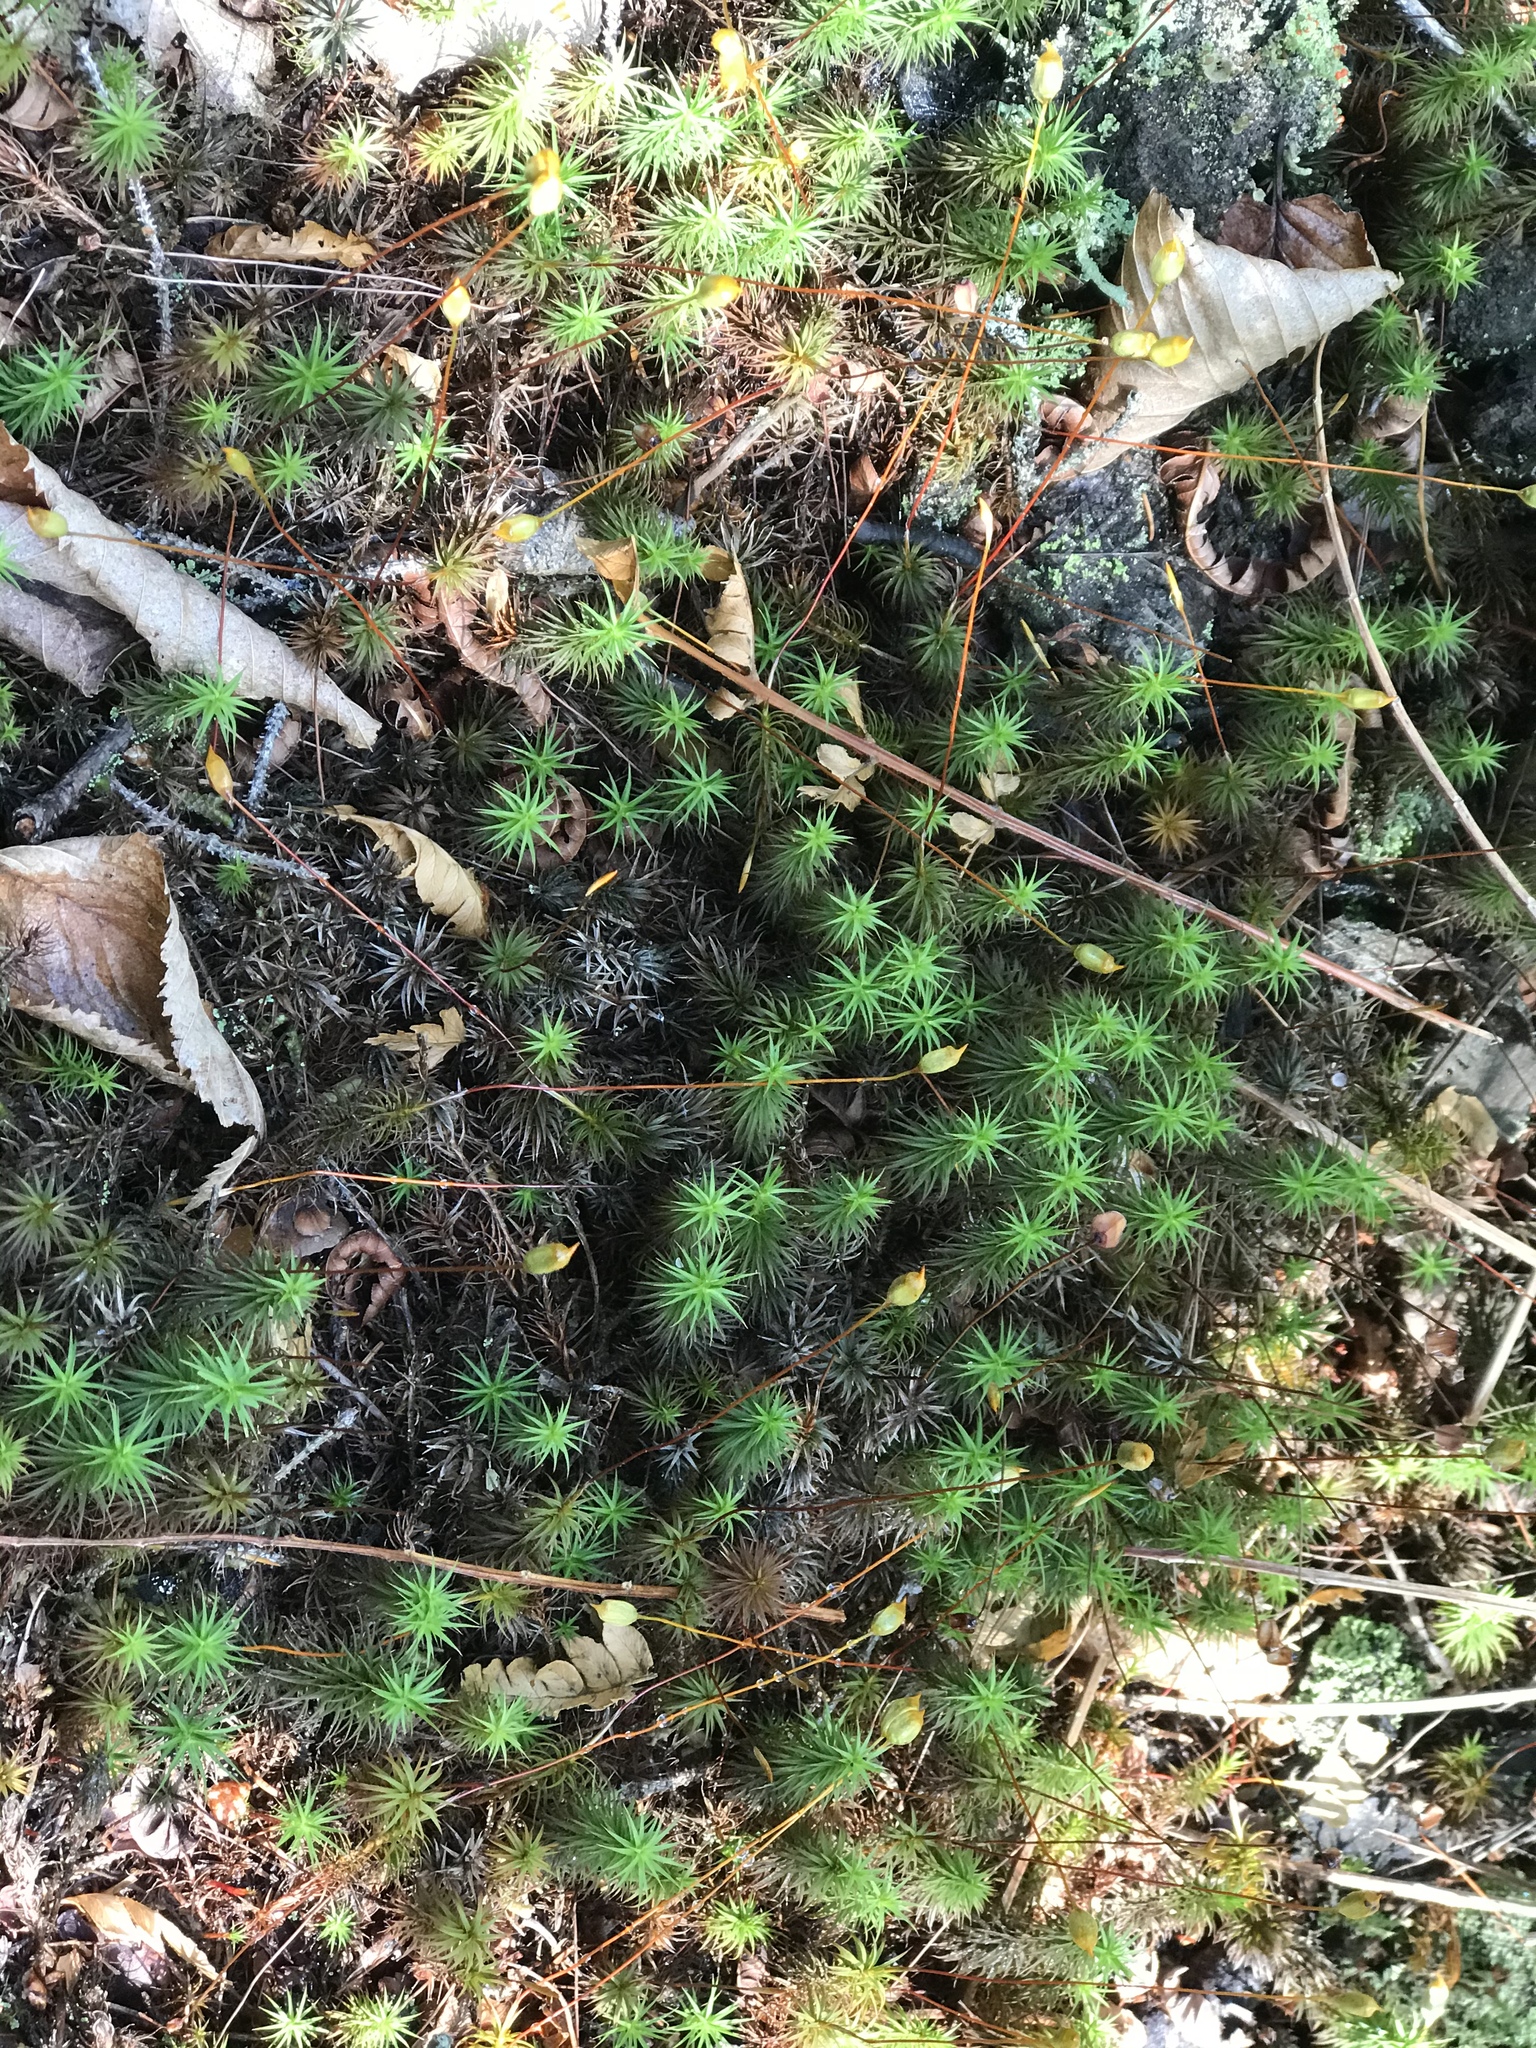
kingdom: Plantae
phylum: Bryophyta
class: Polytrichopsida
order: Polytrichales
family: Polytrichaceae
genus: Polytrichum
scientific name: Polytrichum commune
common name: Common haircap
